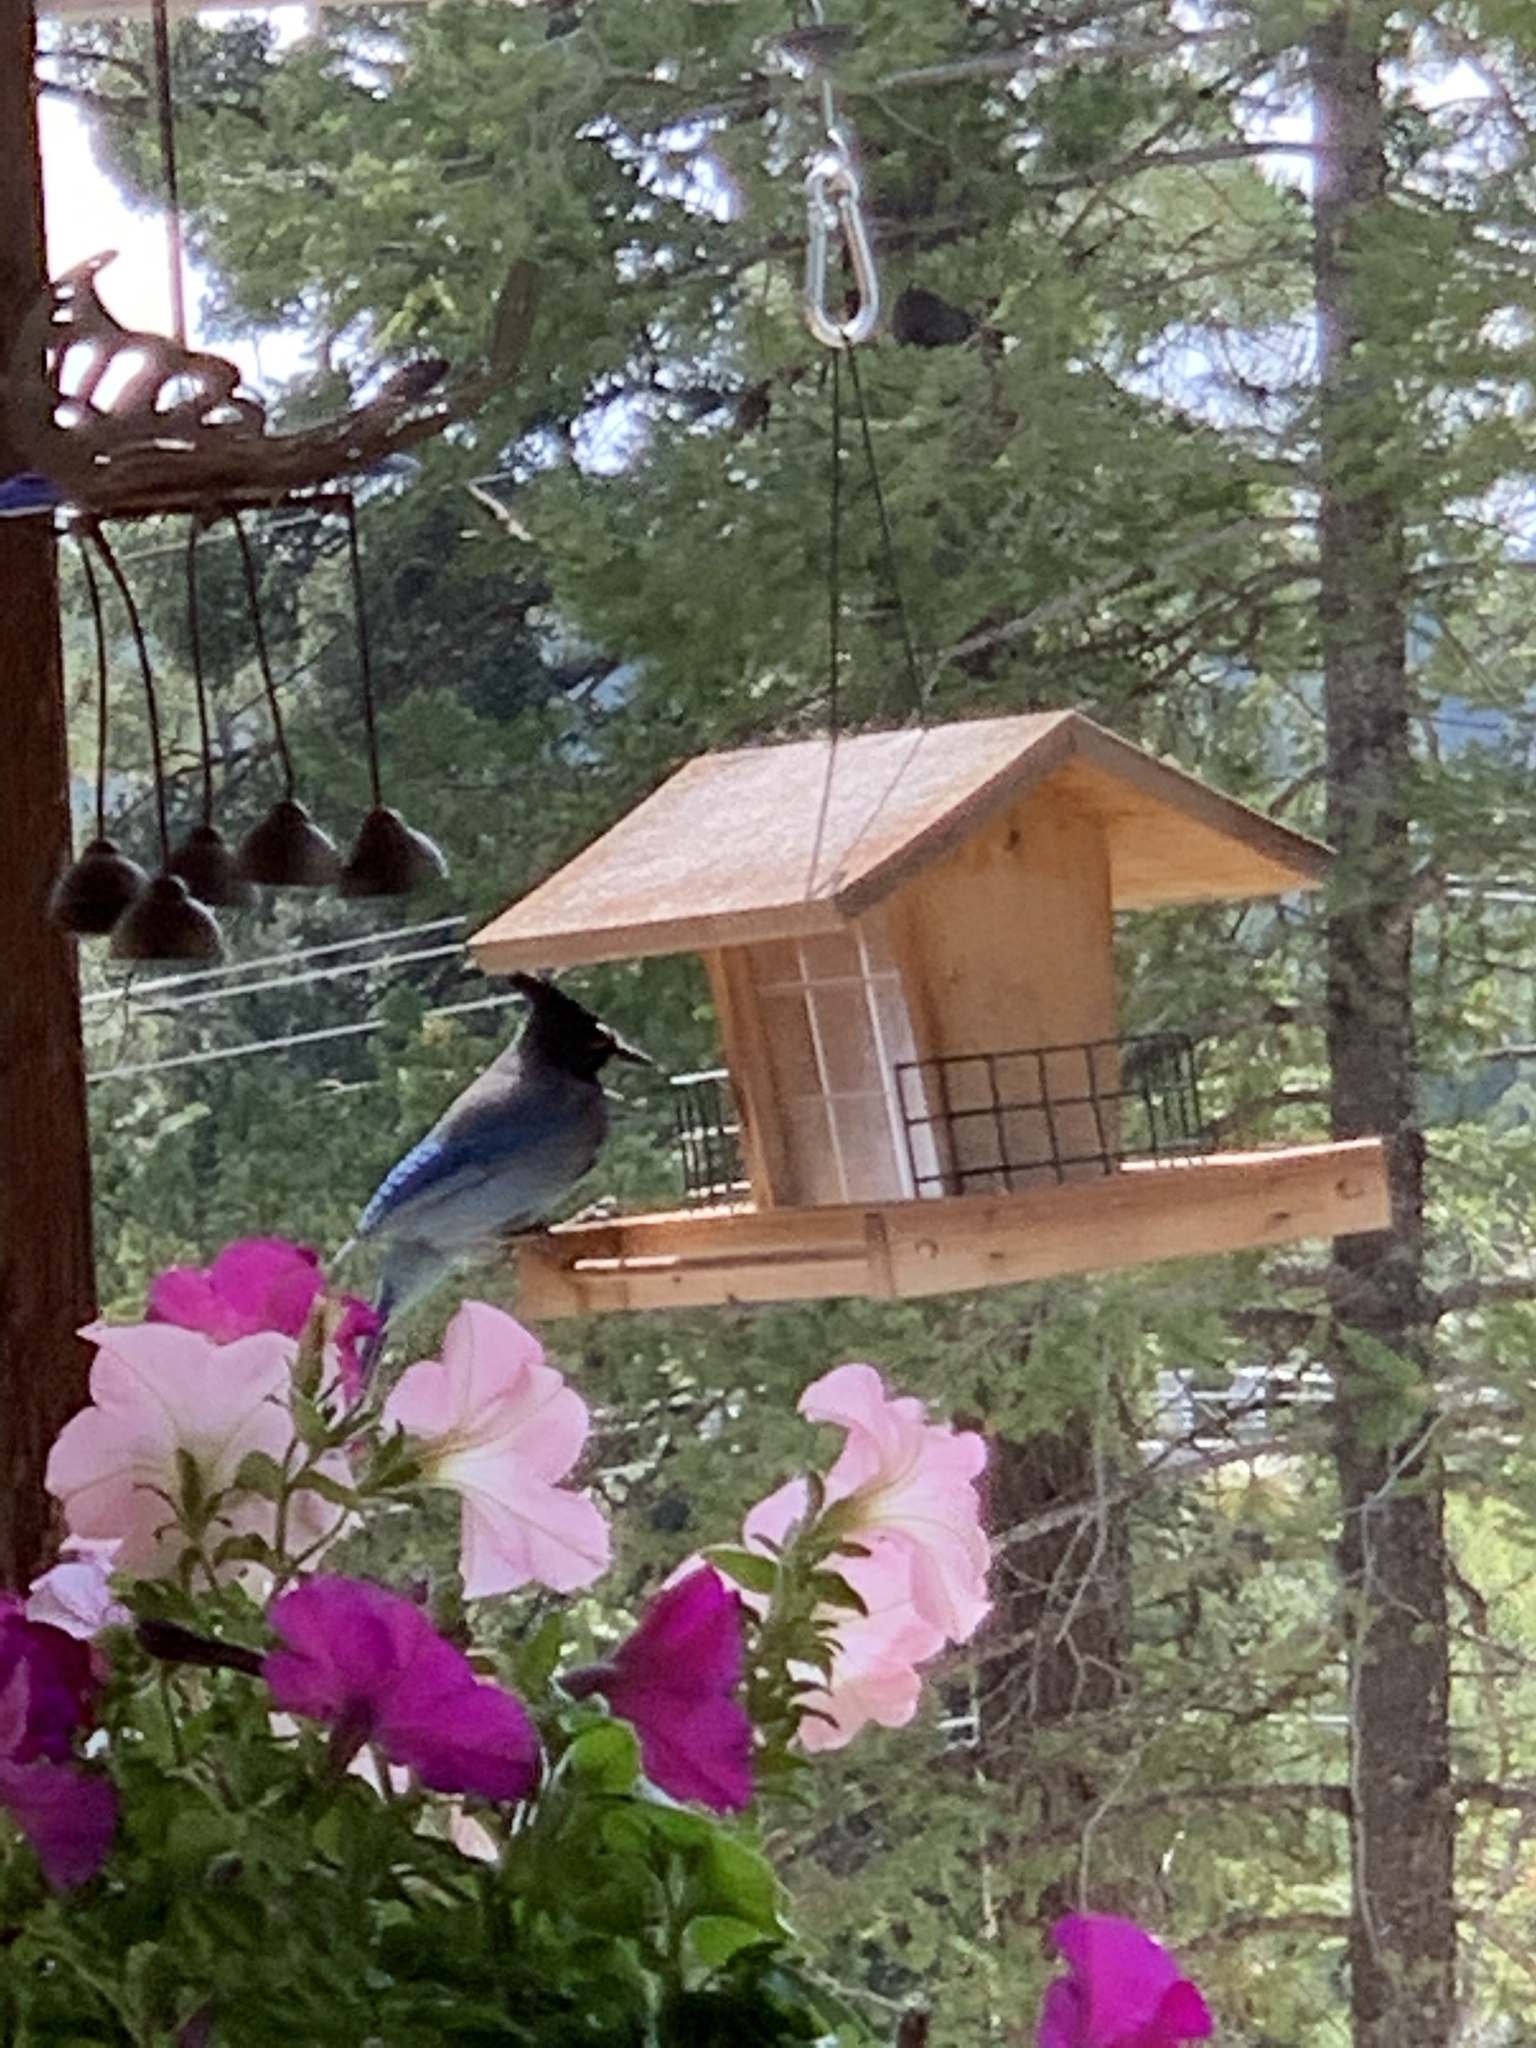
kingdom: Animalia
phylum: Chordata
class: Aves
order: Passeriformes
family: Corvidae
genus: Cyanocitta
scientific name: Cyanocitta stelleri
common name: Steller's jay
